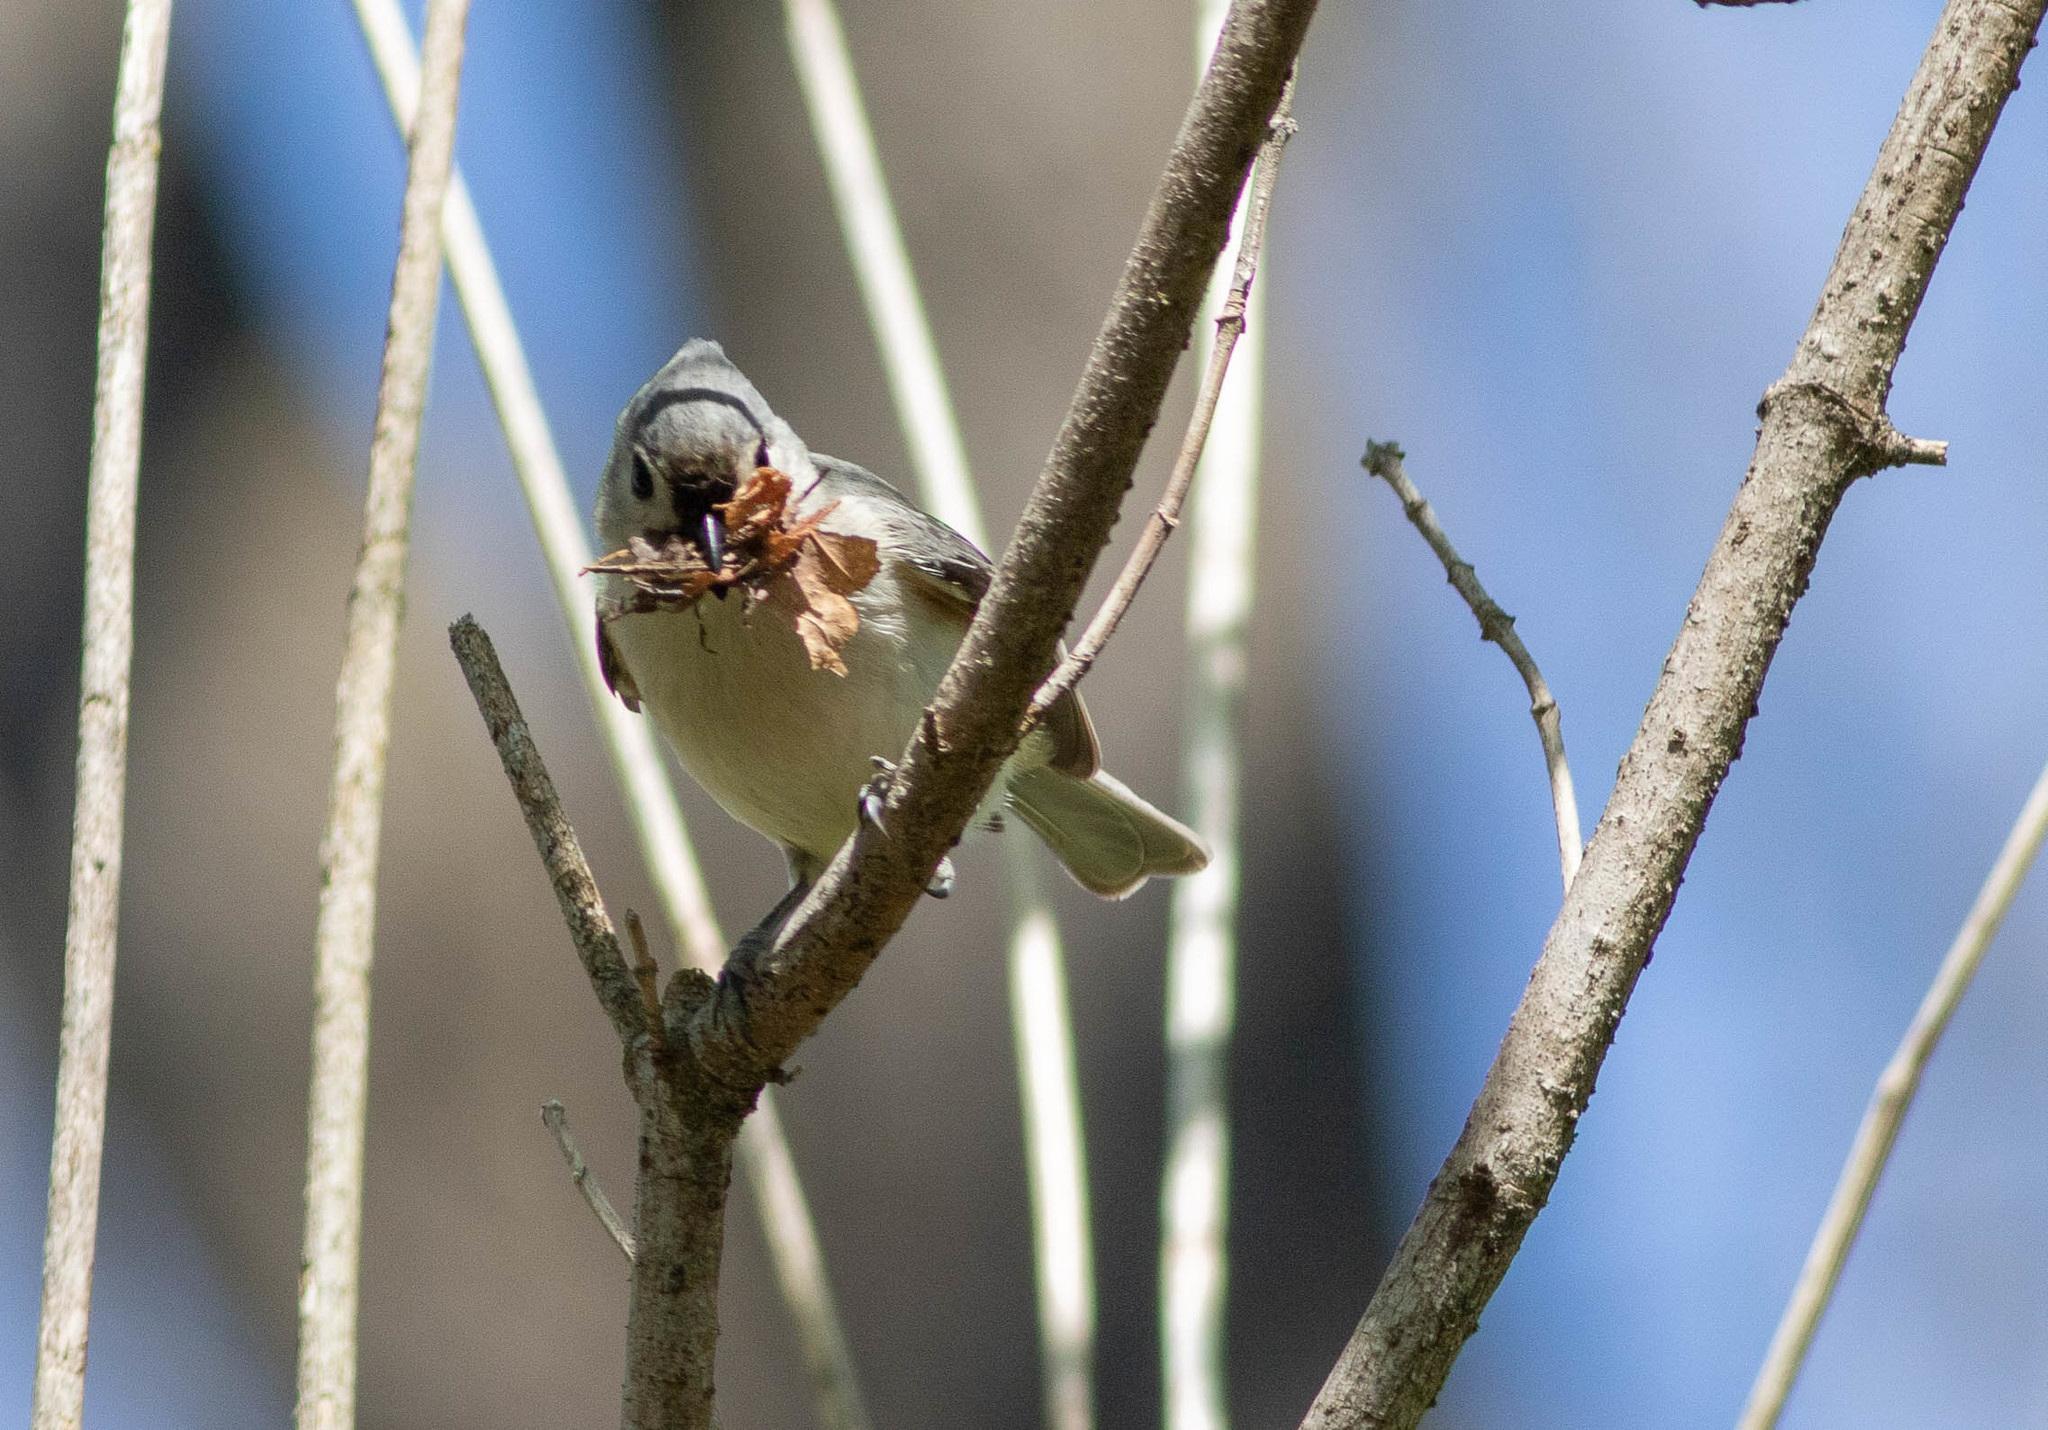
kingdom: Animalia
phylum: Chordata
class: Aves
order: Passeriformes
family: Paridae
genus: Baeolophus
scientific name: Baeolophus bicolor
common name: Tufted titmouse
